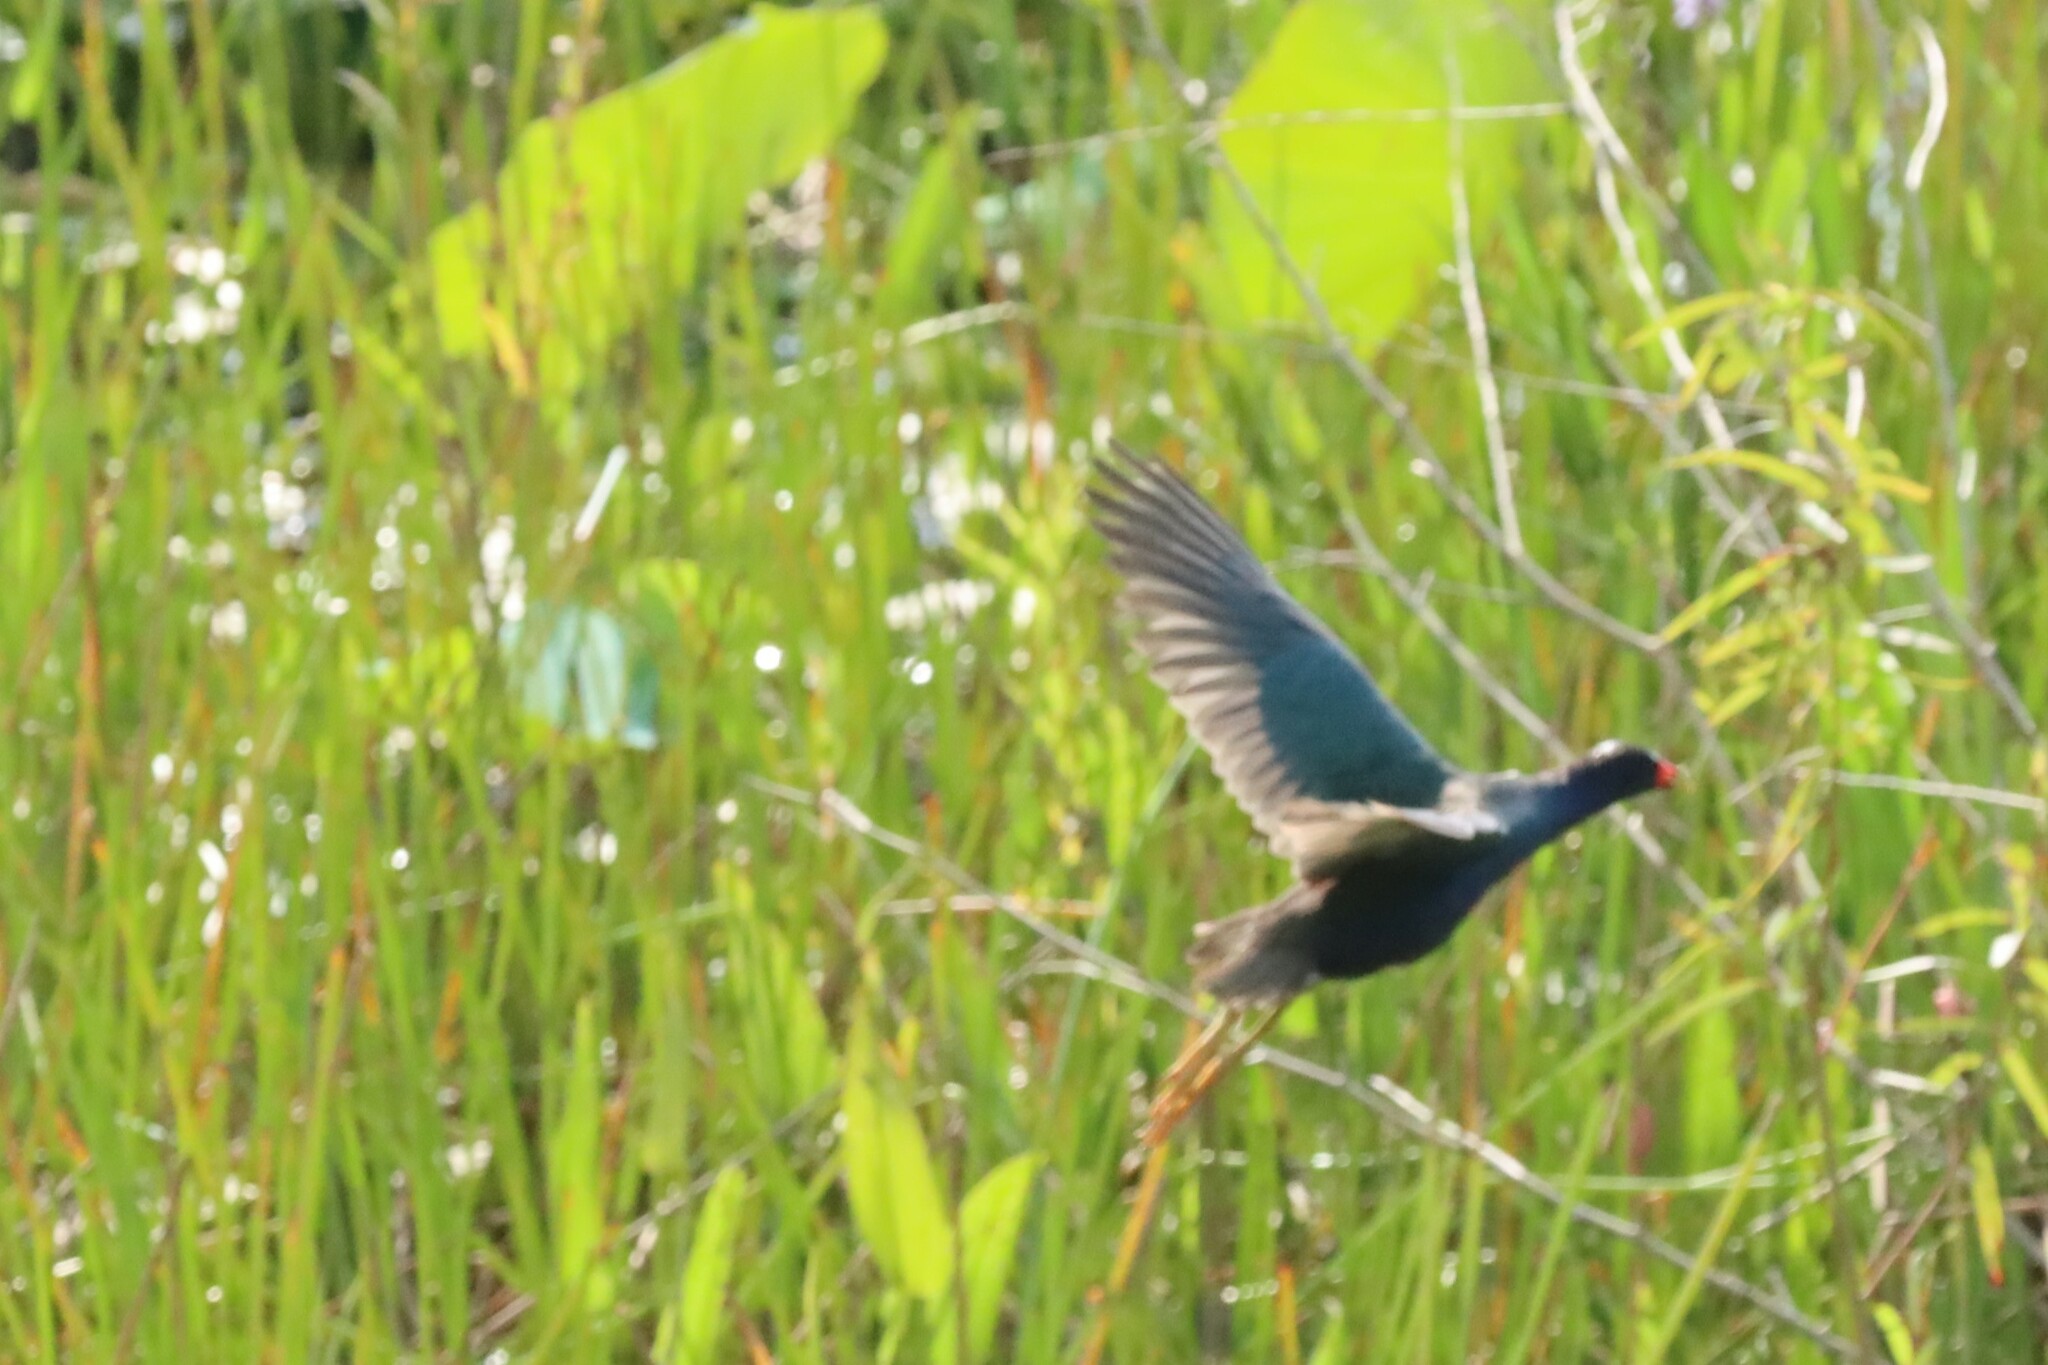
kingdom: Animalia
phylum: Chordata
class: Aves
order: Gruiformes
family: Rallidae
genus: Porphyrio
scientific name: Porphyrio martinica
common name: Purple gallinule
